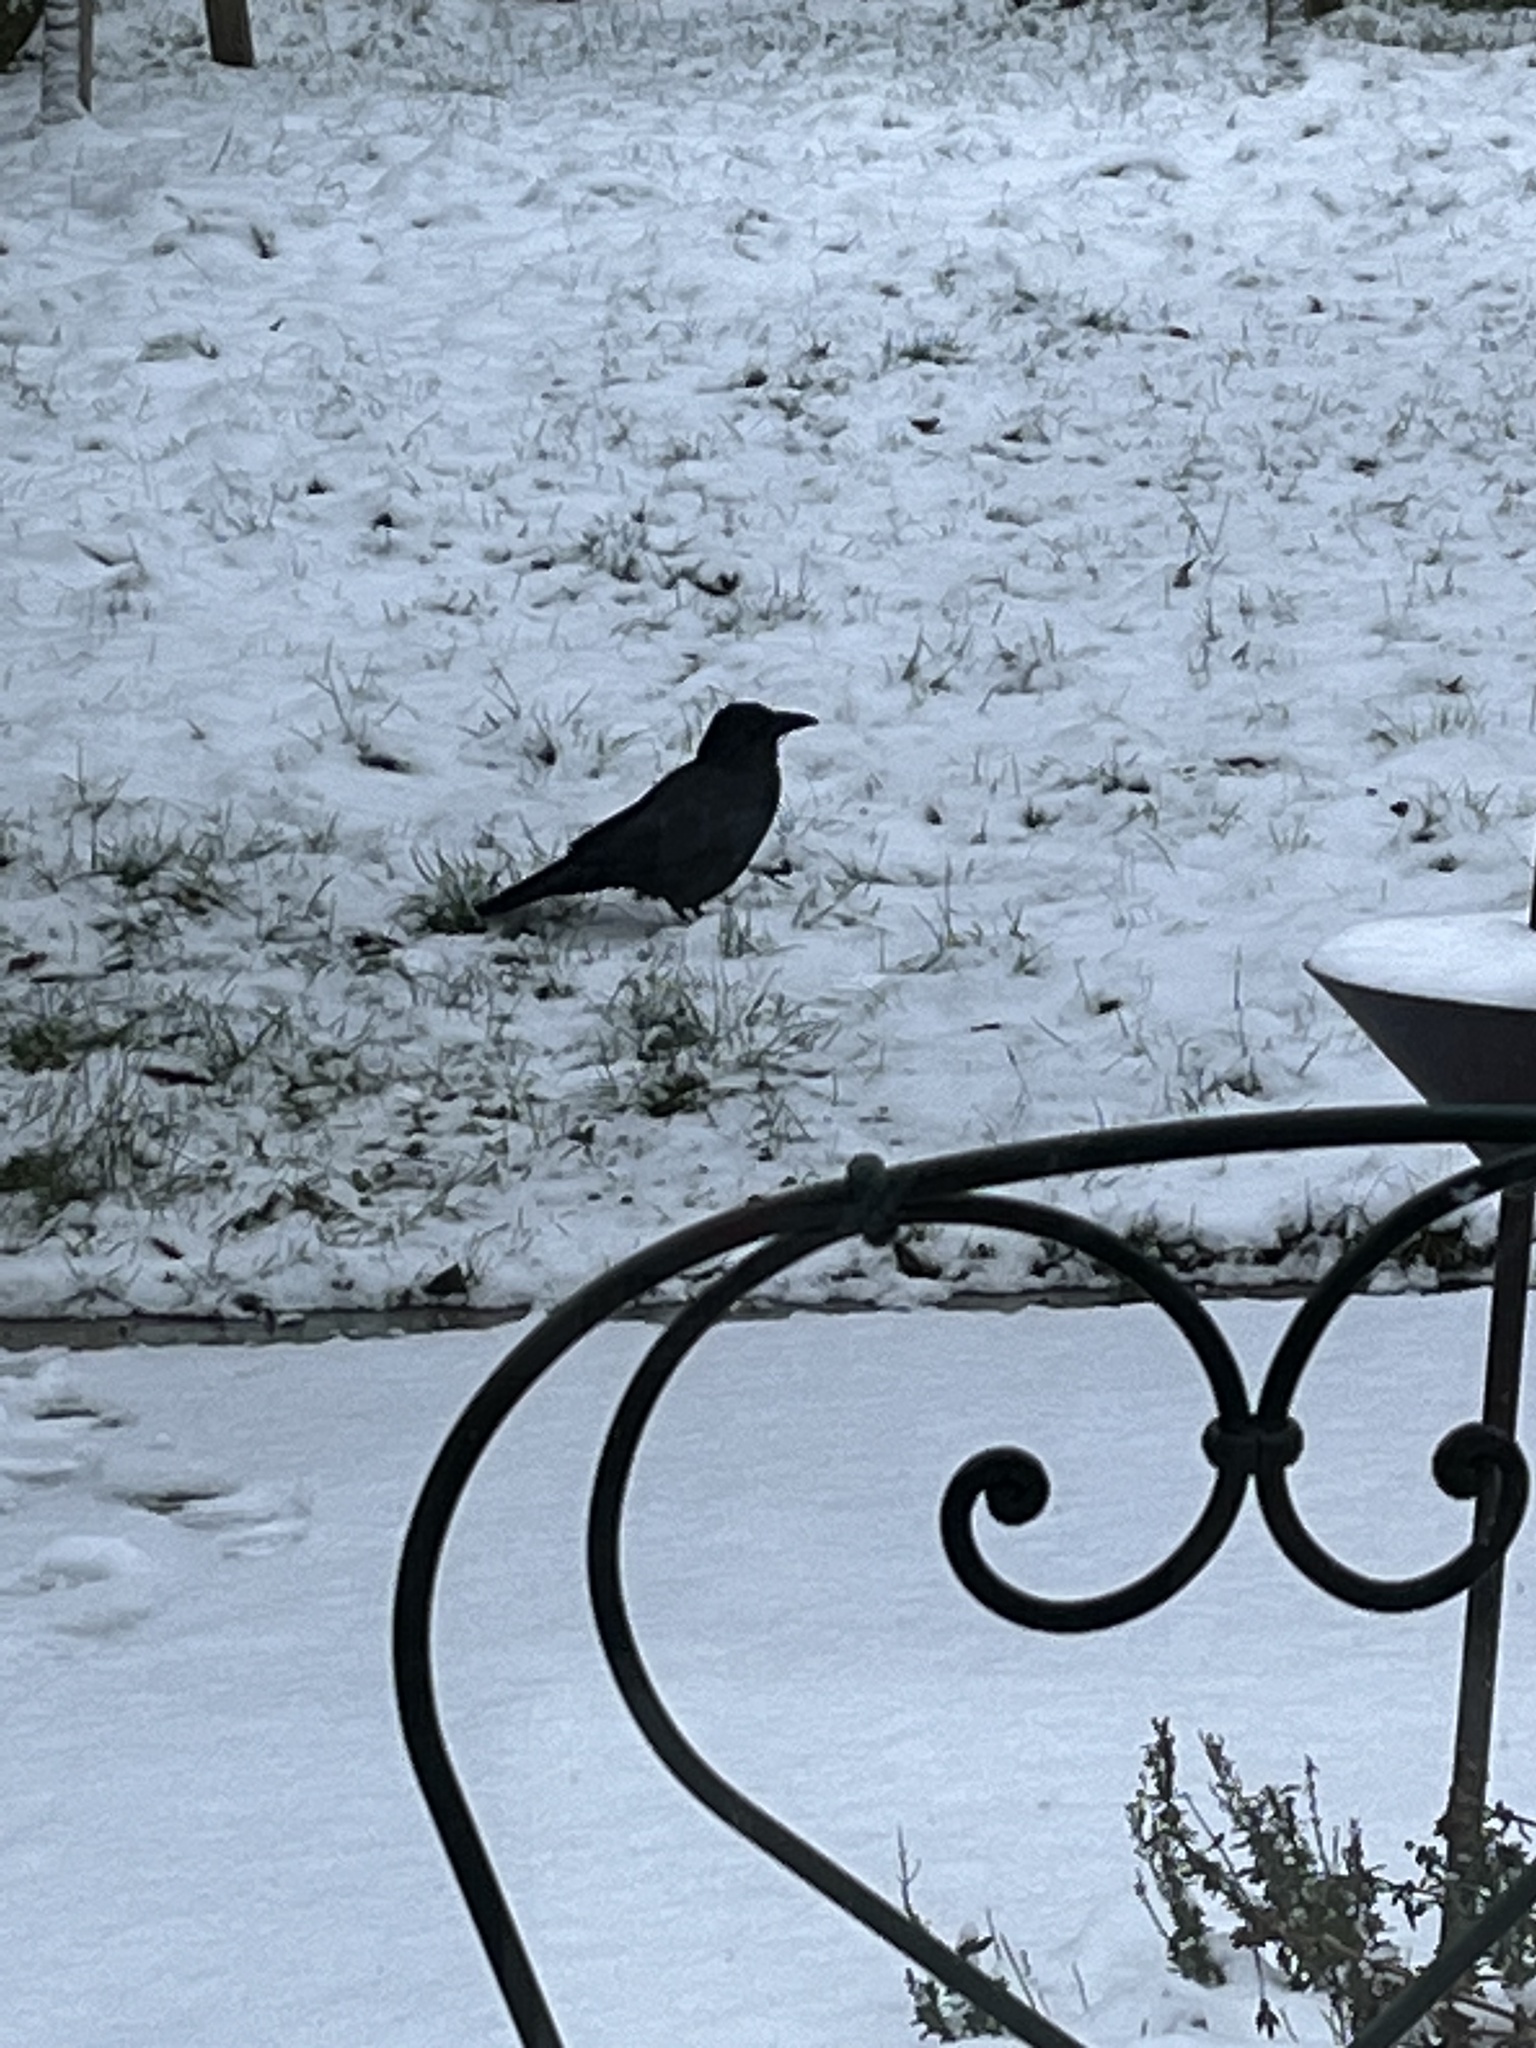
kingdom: Animalia
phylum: Chordata
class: Aves
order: Passeriformes
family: Corvidae
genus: Corvus
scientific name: Corvus corone
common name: Carrion crow
